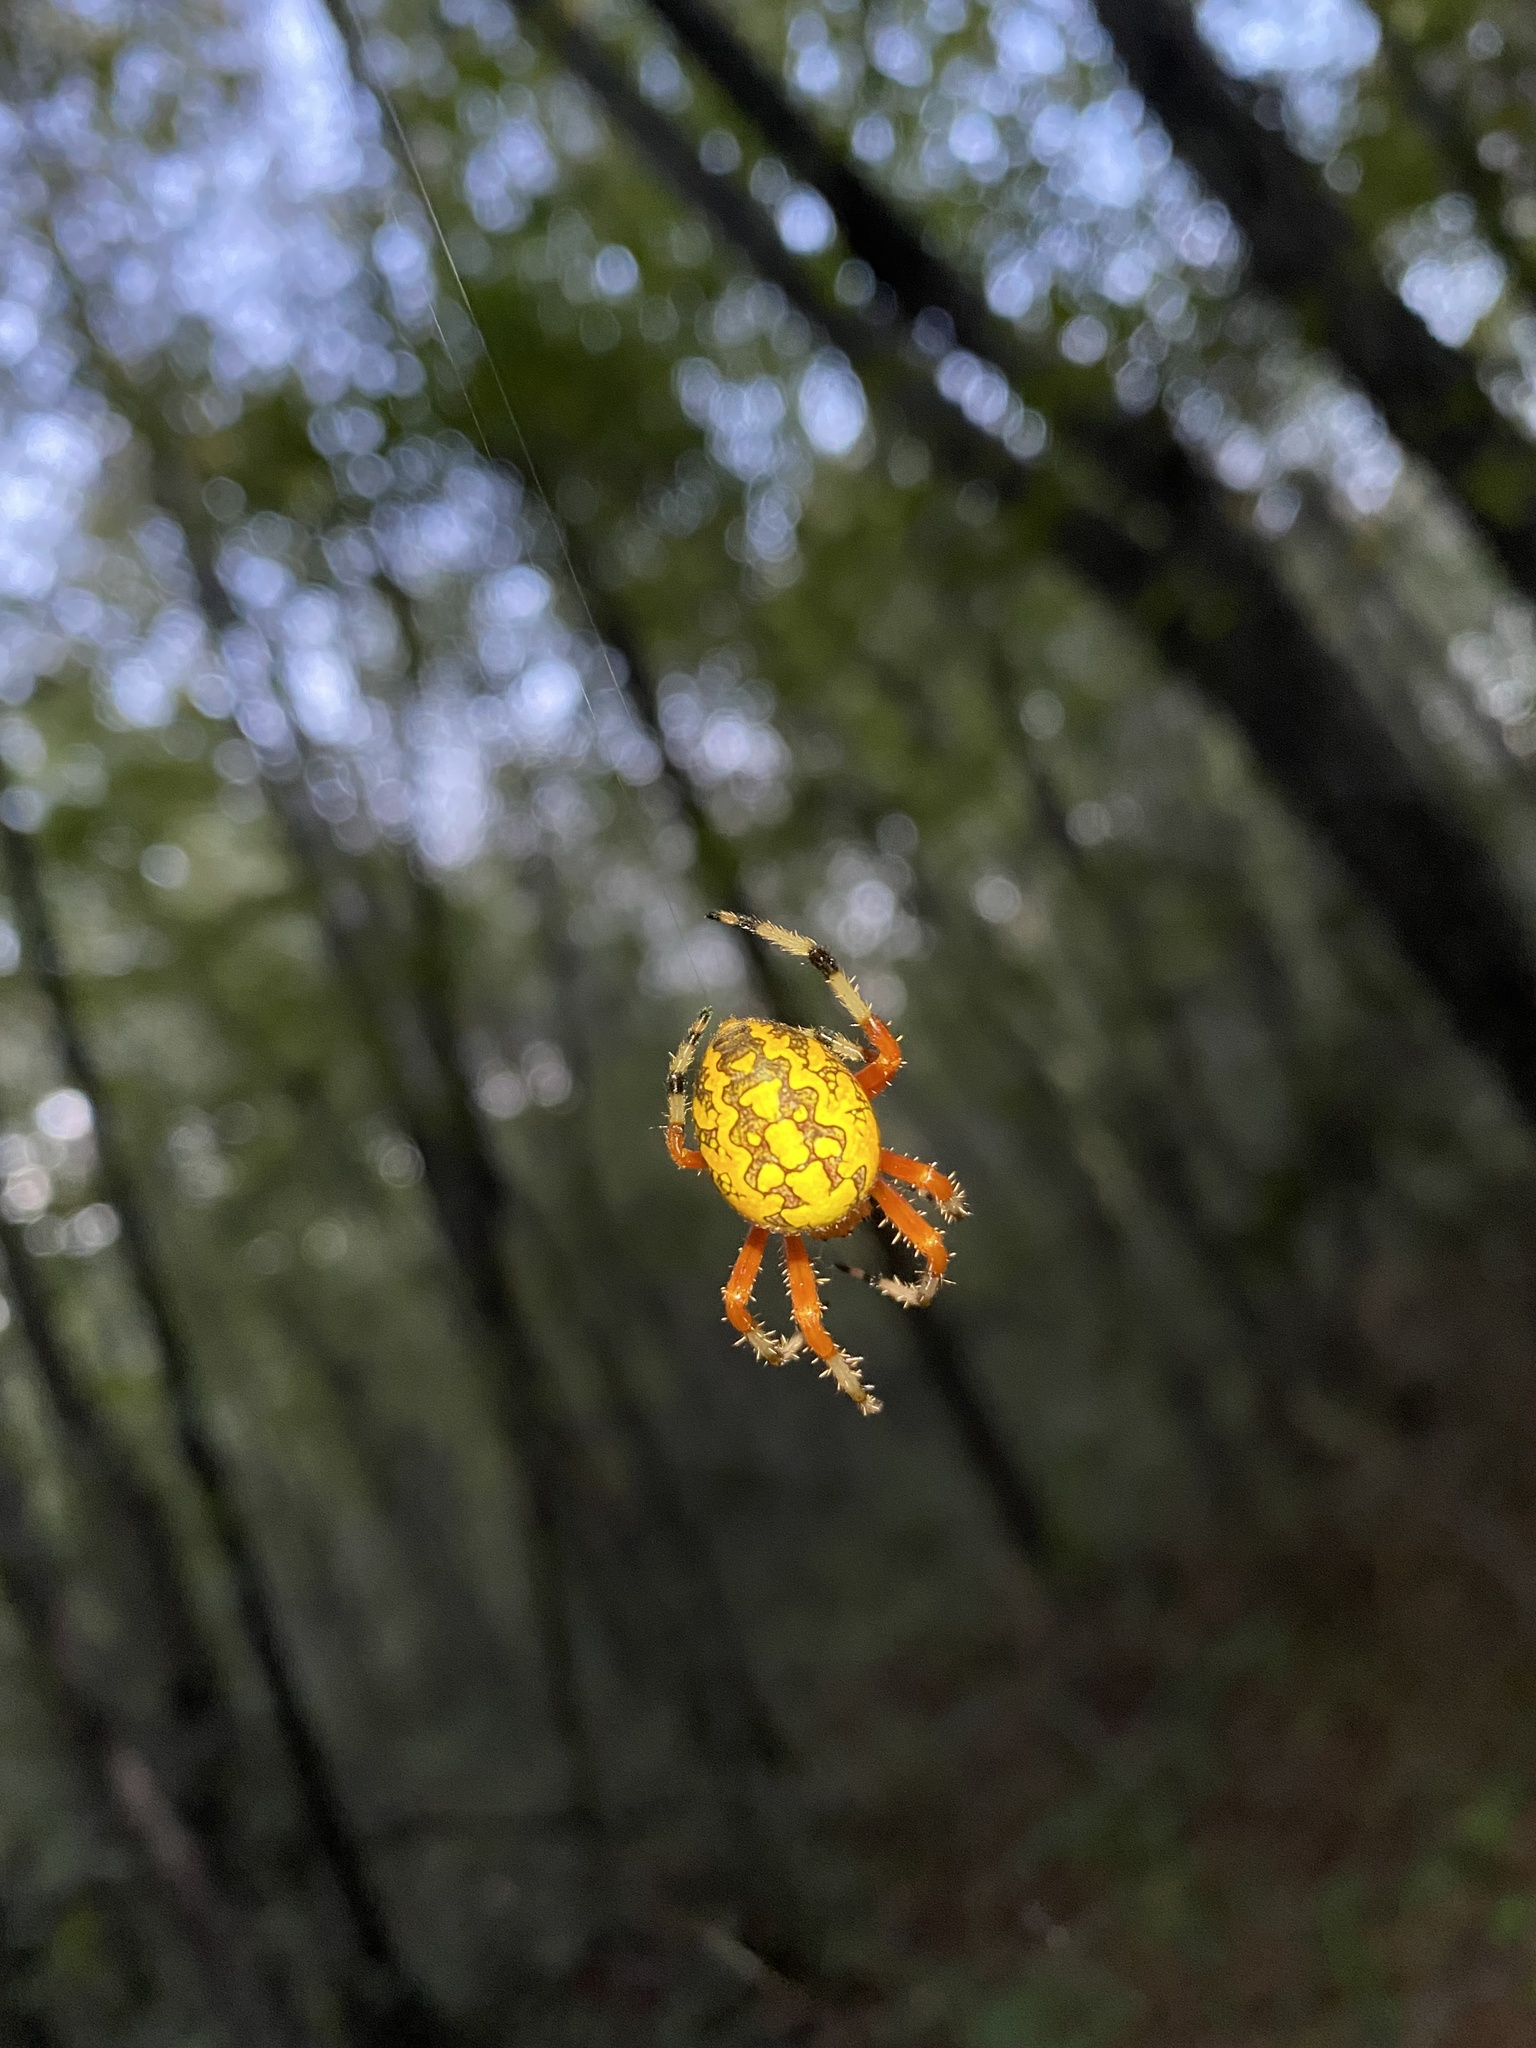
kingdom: Animalia
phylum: Arthropoda
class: Arachnida
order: Araneae
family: Araneidae
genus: Araneus
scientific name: Araneus marmoreus
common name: Marbled orbweaver
